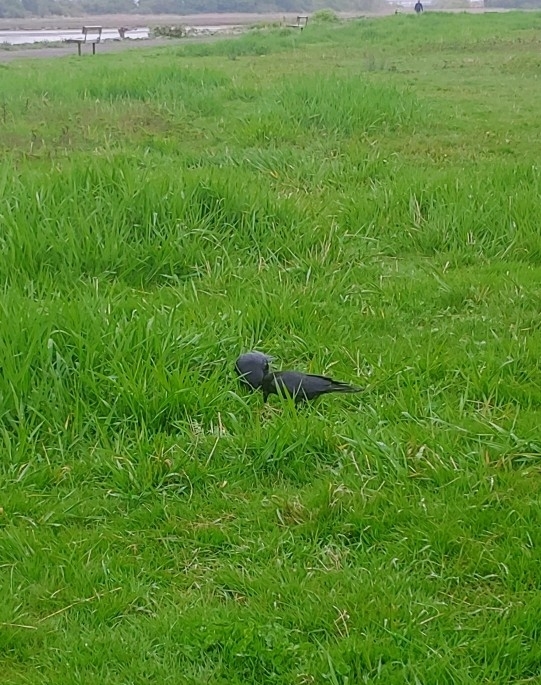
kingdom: Animalia
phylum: Chordata
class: Aves
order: Passeriformes
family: Corvidae
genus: Corvus
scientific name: Corvus brachyrhynchos
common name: American crow
